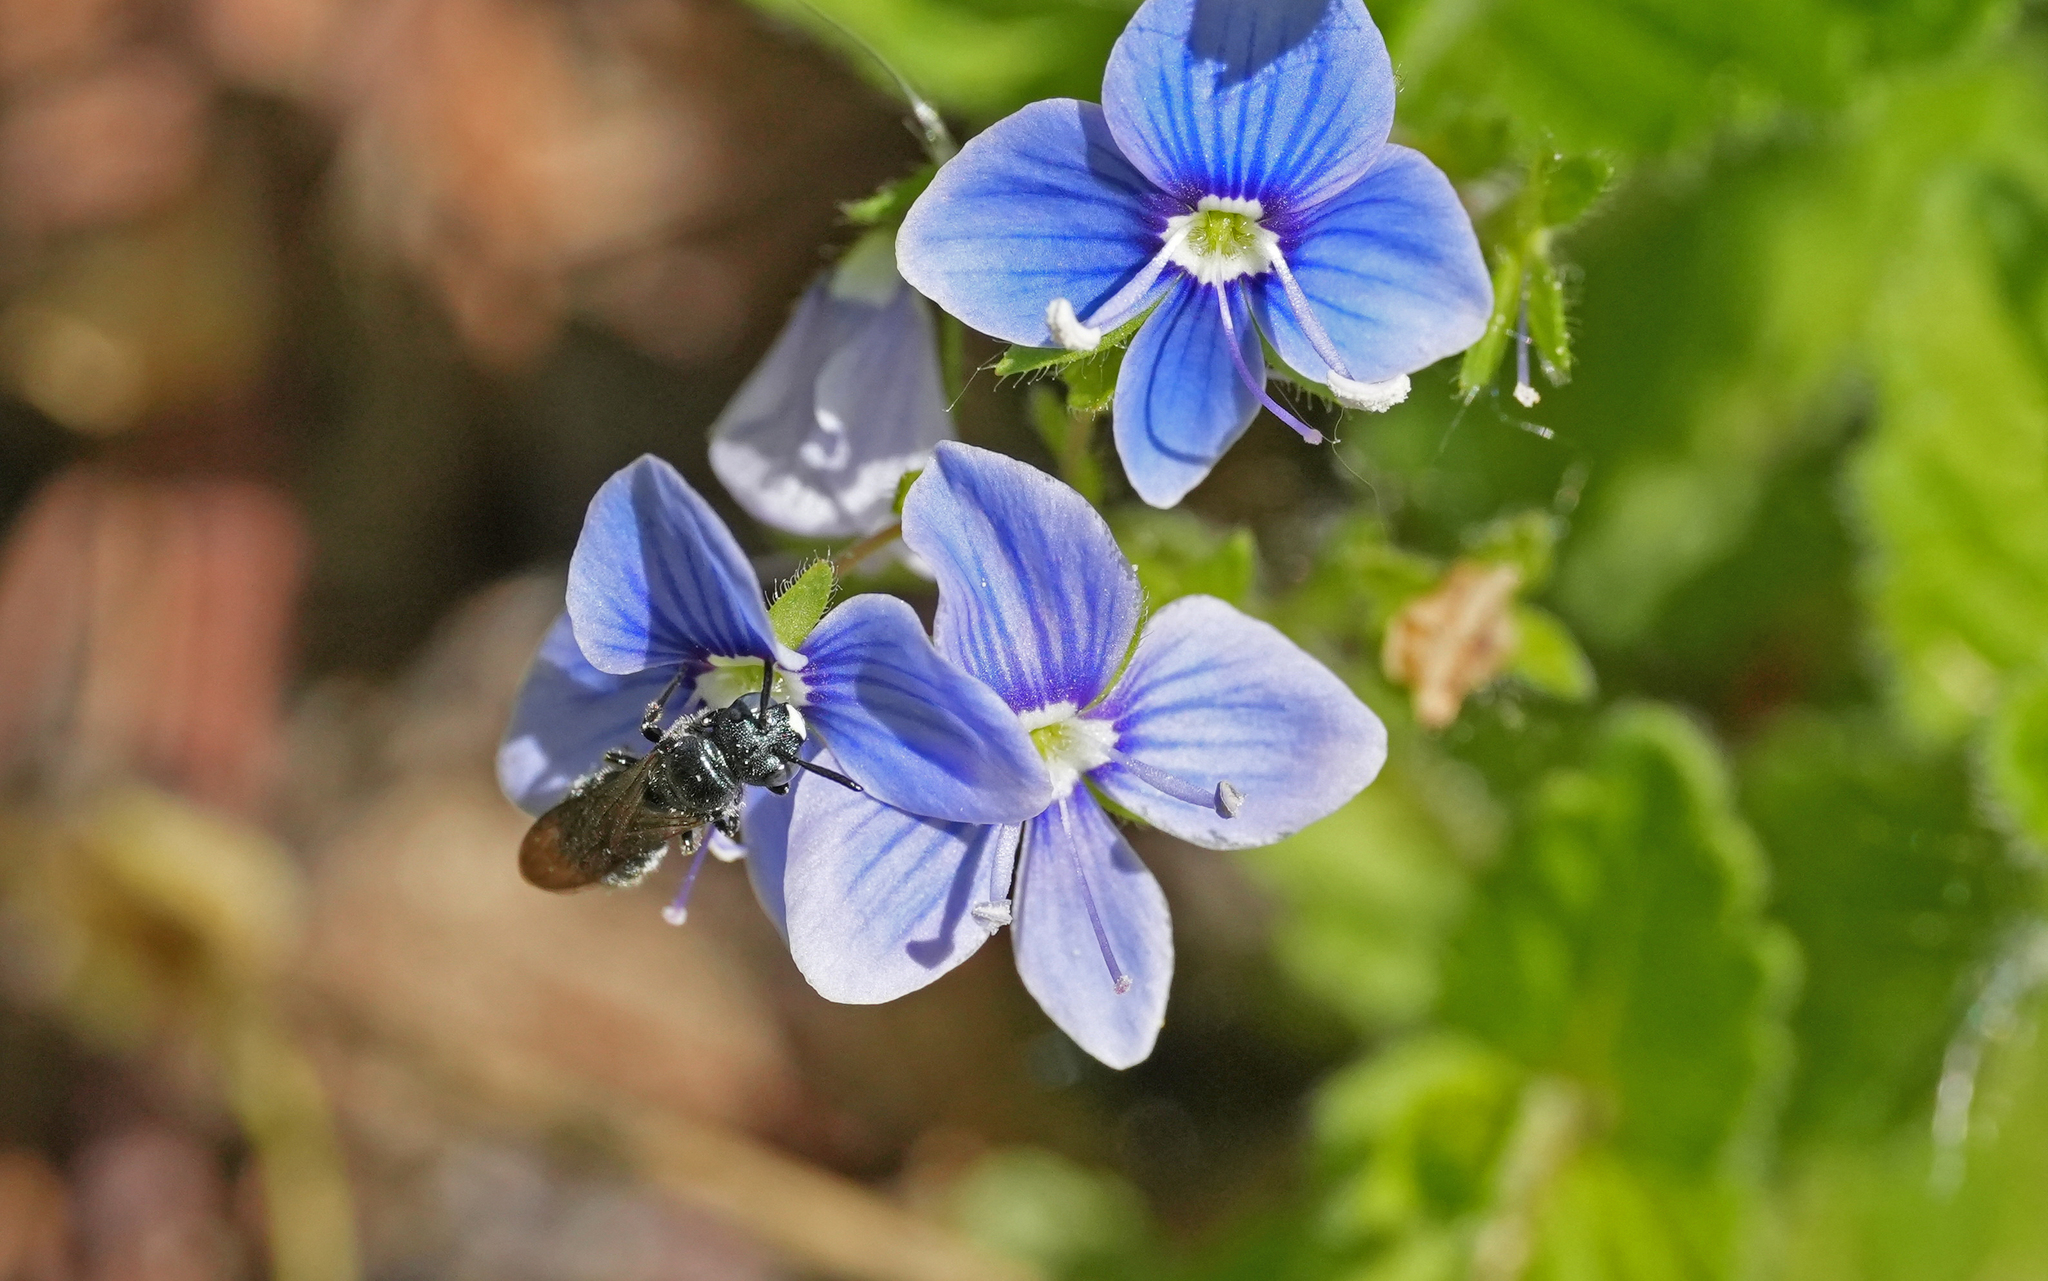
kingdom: Animalia
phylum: Arthropoda
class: Insecta
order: Hymenoptera
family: Apidae
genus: Ceratina
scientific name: Ceratina cyanea
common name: Little blue carpenter bee
